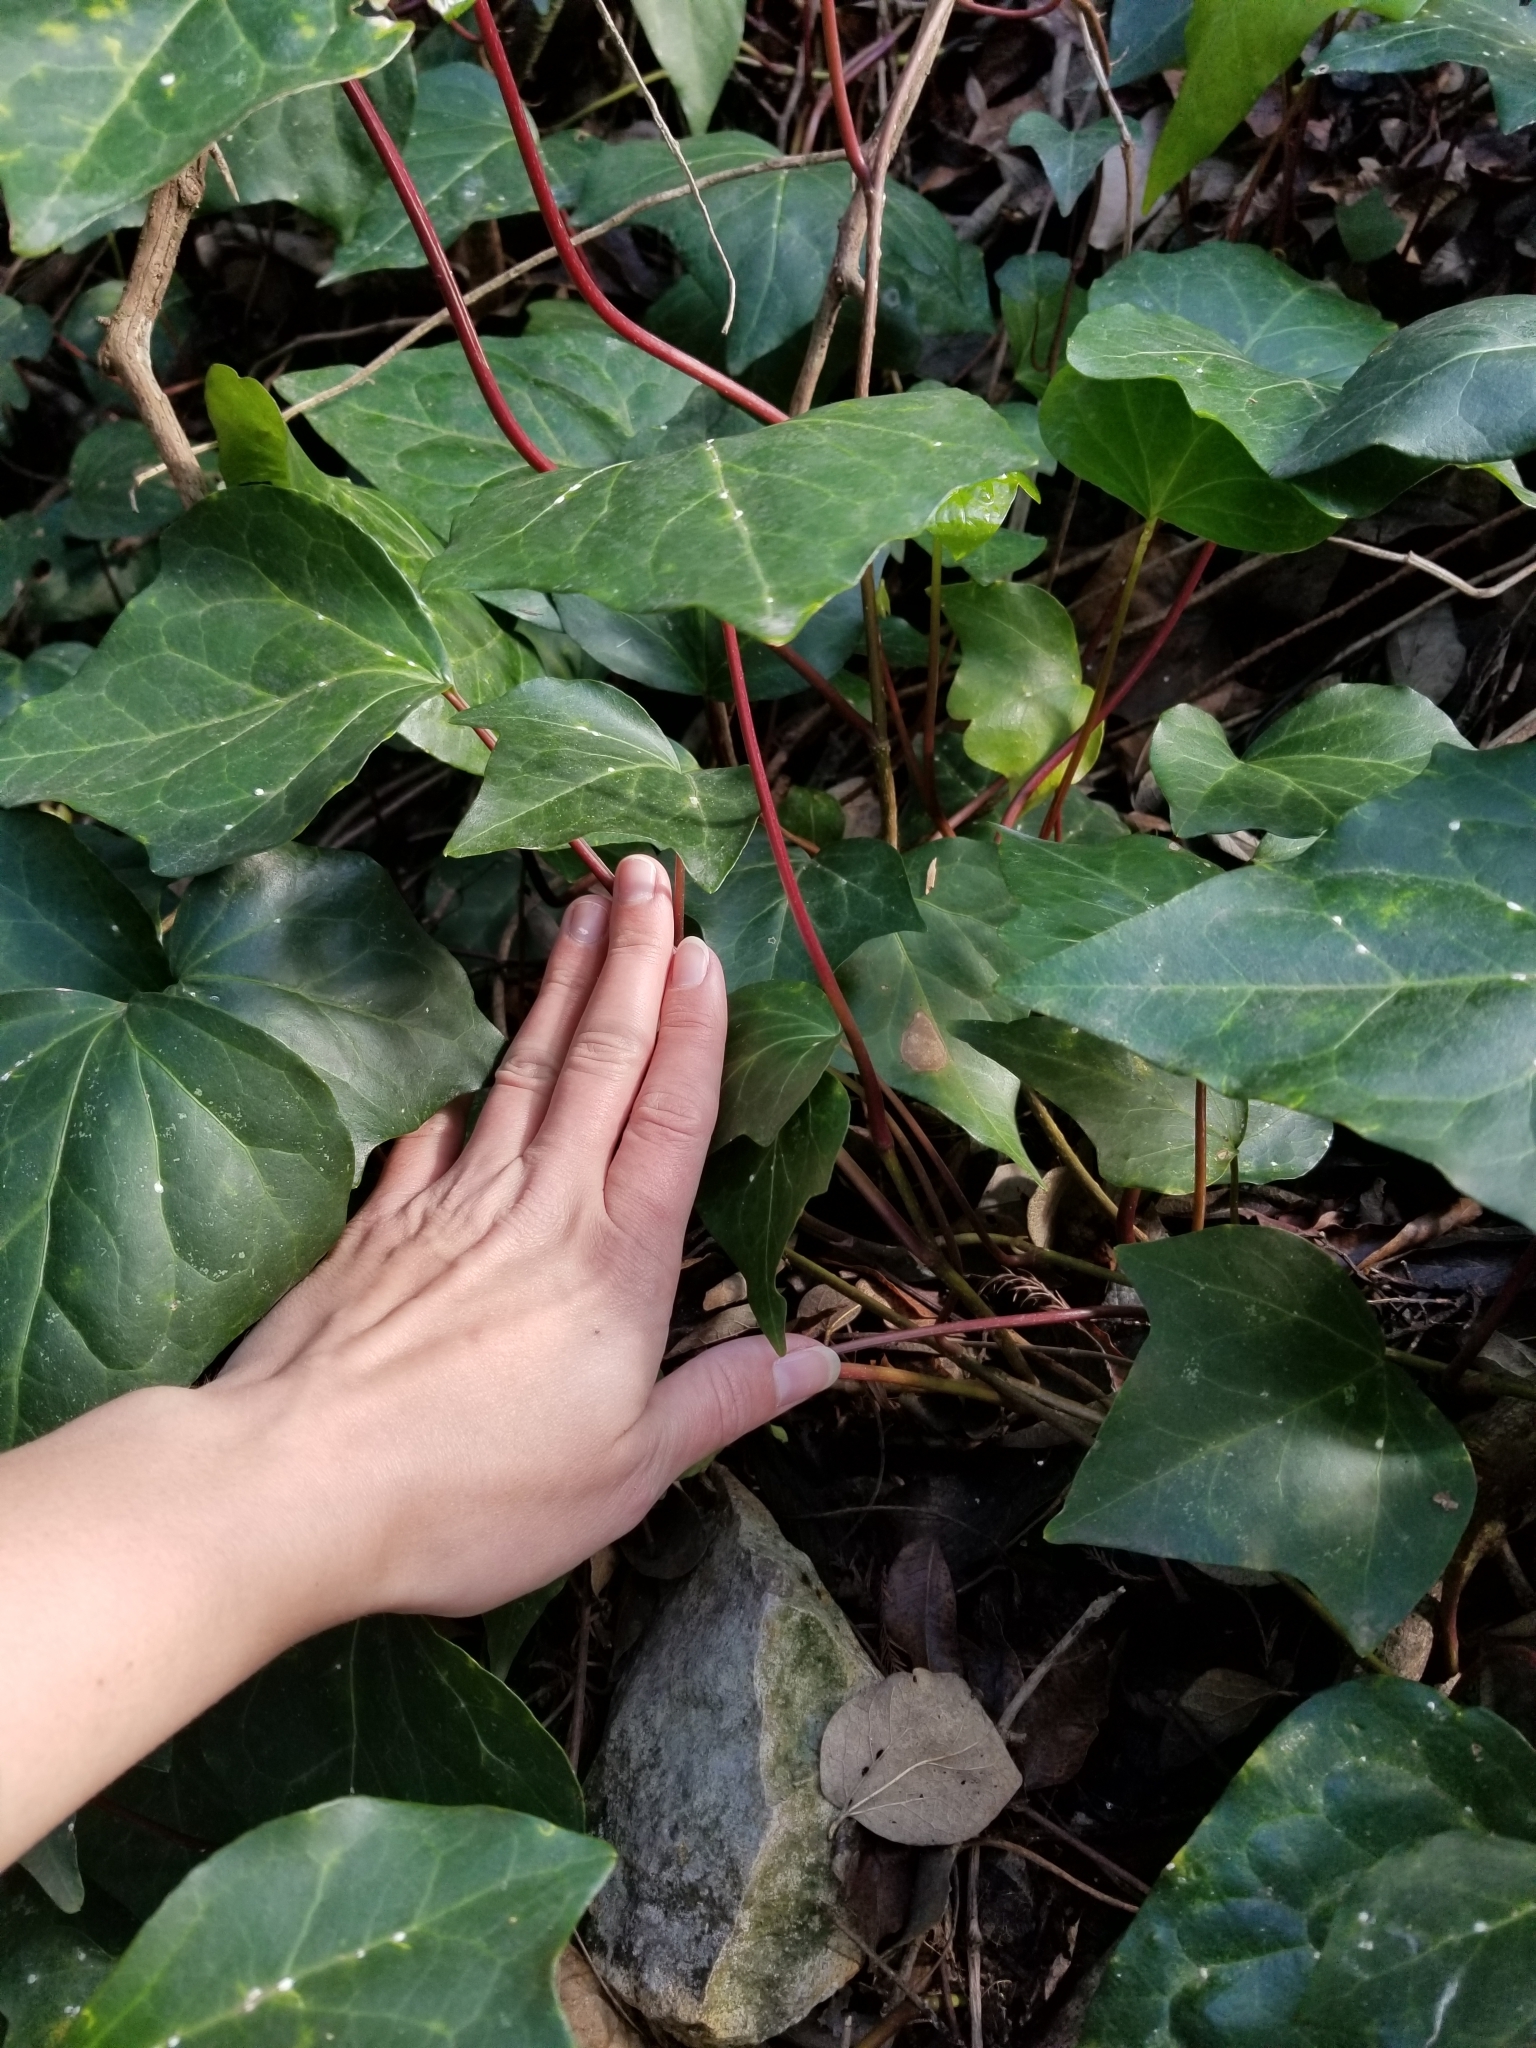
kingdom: Plantae
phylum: Tracheophyta
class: Magnoliopsida
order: Apiales
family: Araliaceae
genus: Hedera
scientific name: Hedera helix
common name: Ivy
